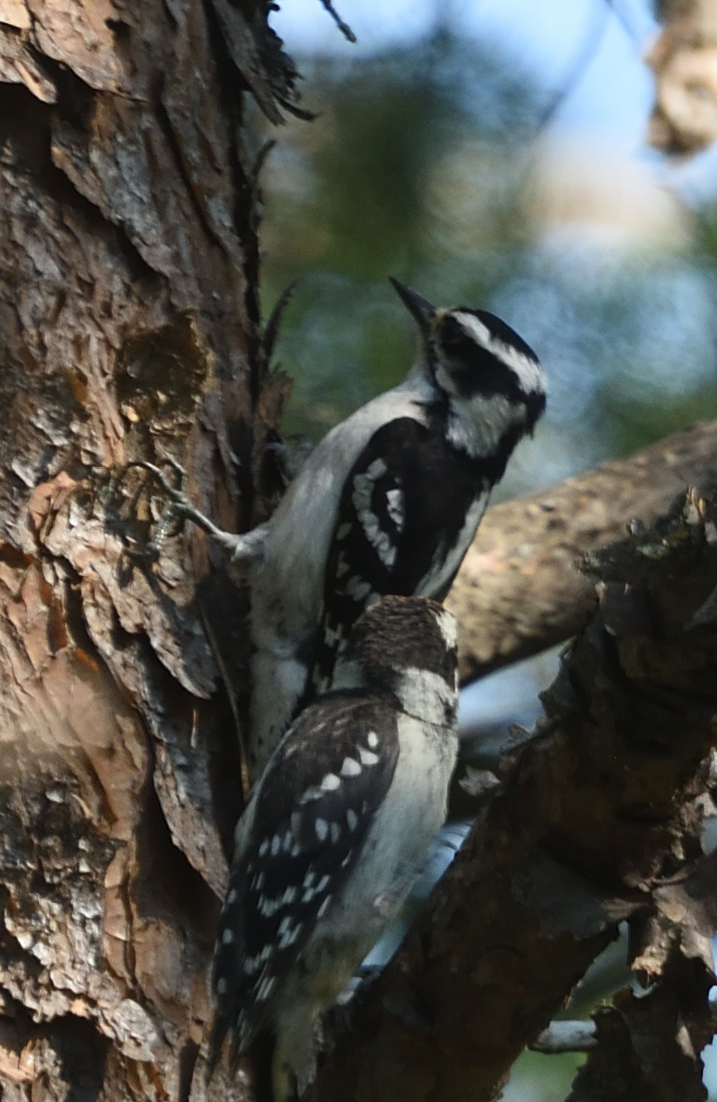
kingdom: Animalia
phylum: Chordata
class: Aves
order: Piciformes
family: Picidae
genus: Dryobates
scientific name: Dryobates pubescens
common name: Downy woodpecker
